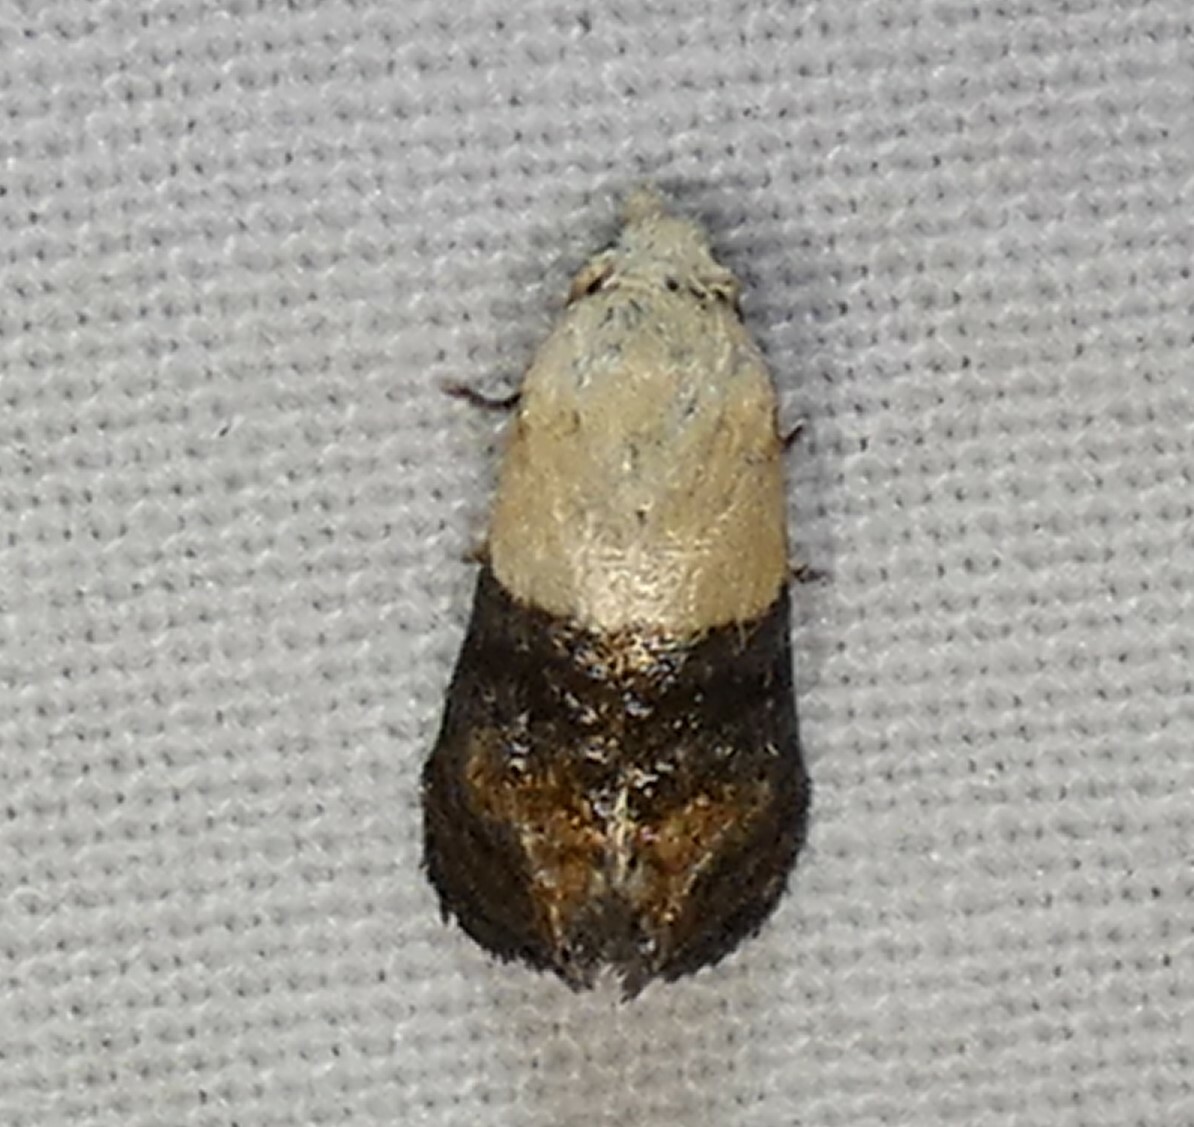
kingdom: Animalia
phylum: Arthropoda
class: Insecta
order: Lepidoptera
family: Tortricidae
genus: Eugnosta
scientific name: Eugnosta erigeronana
